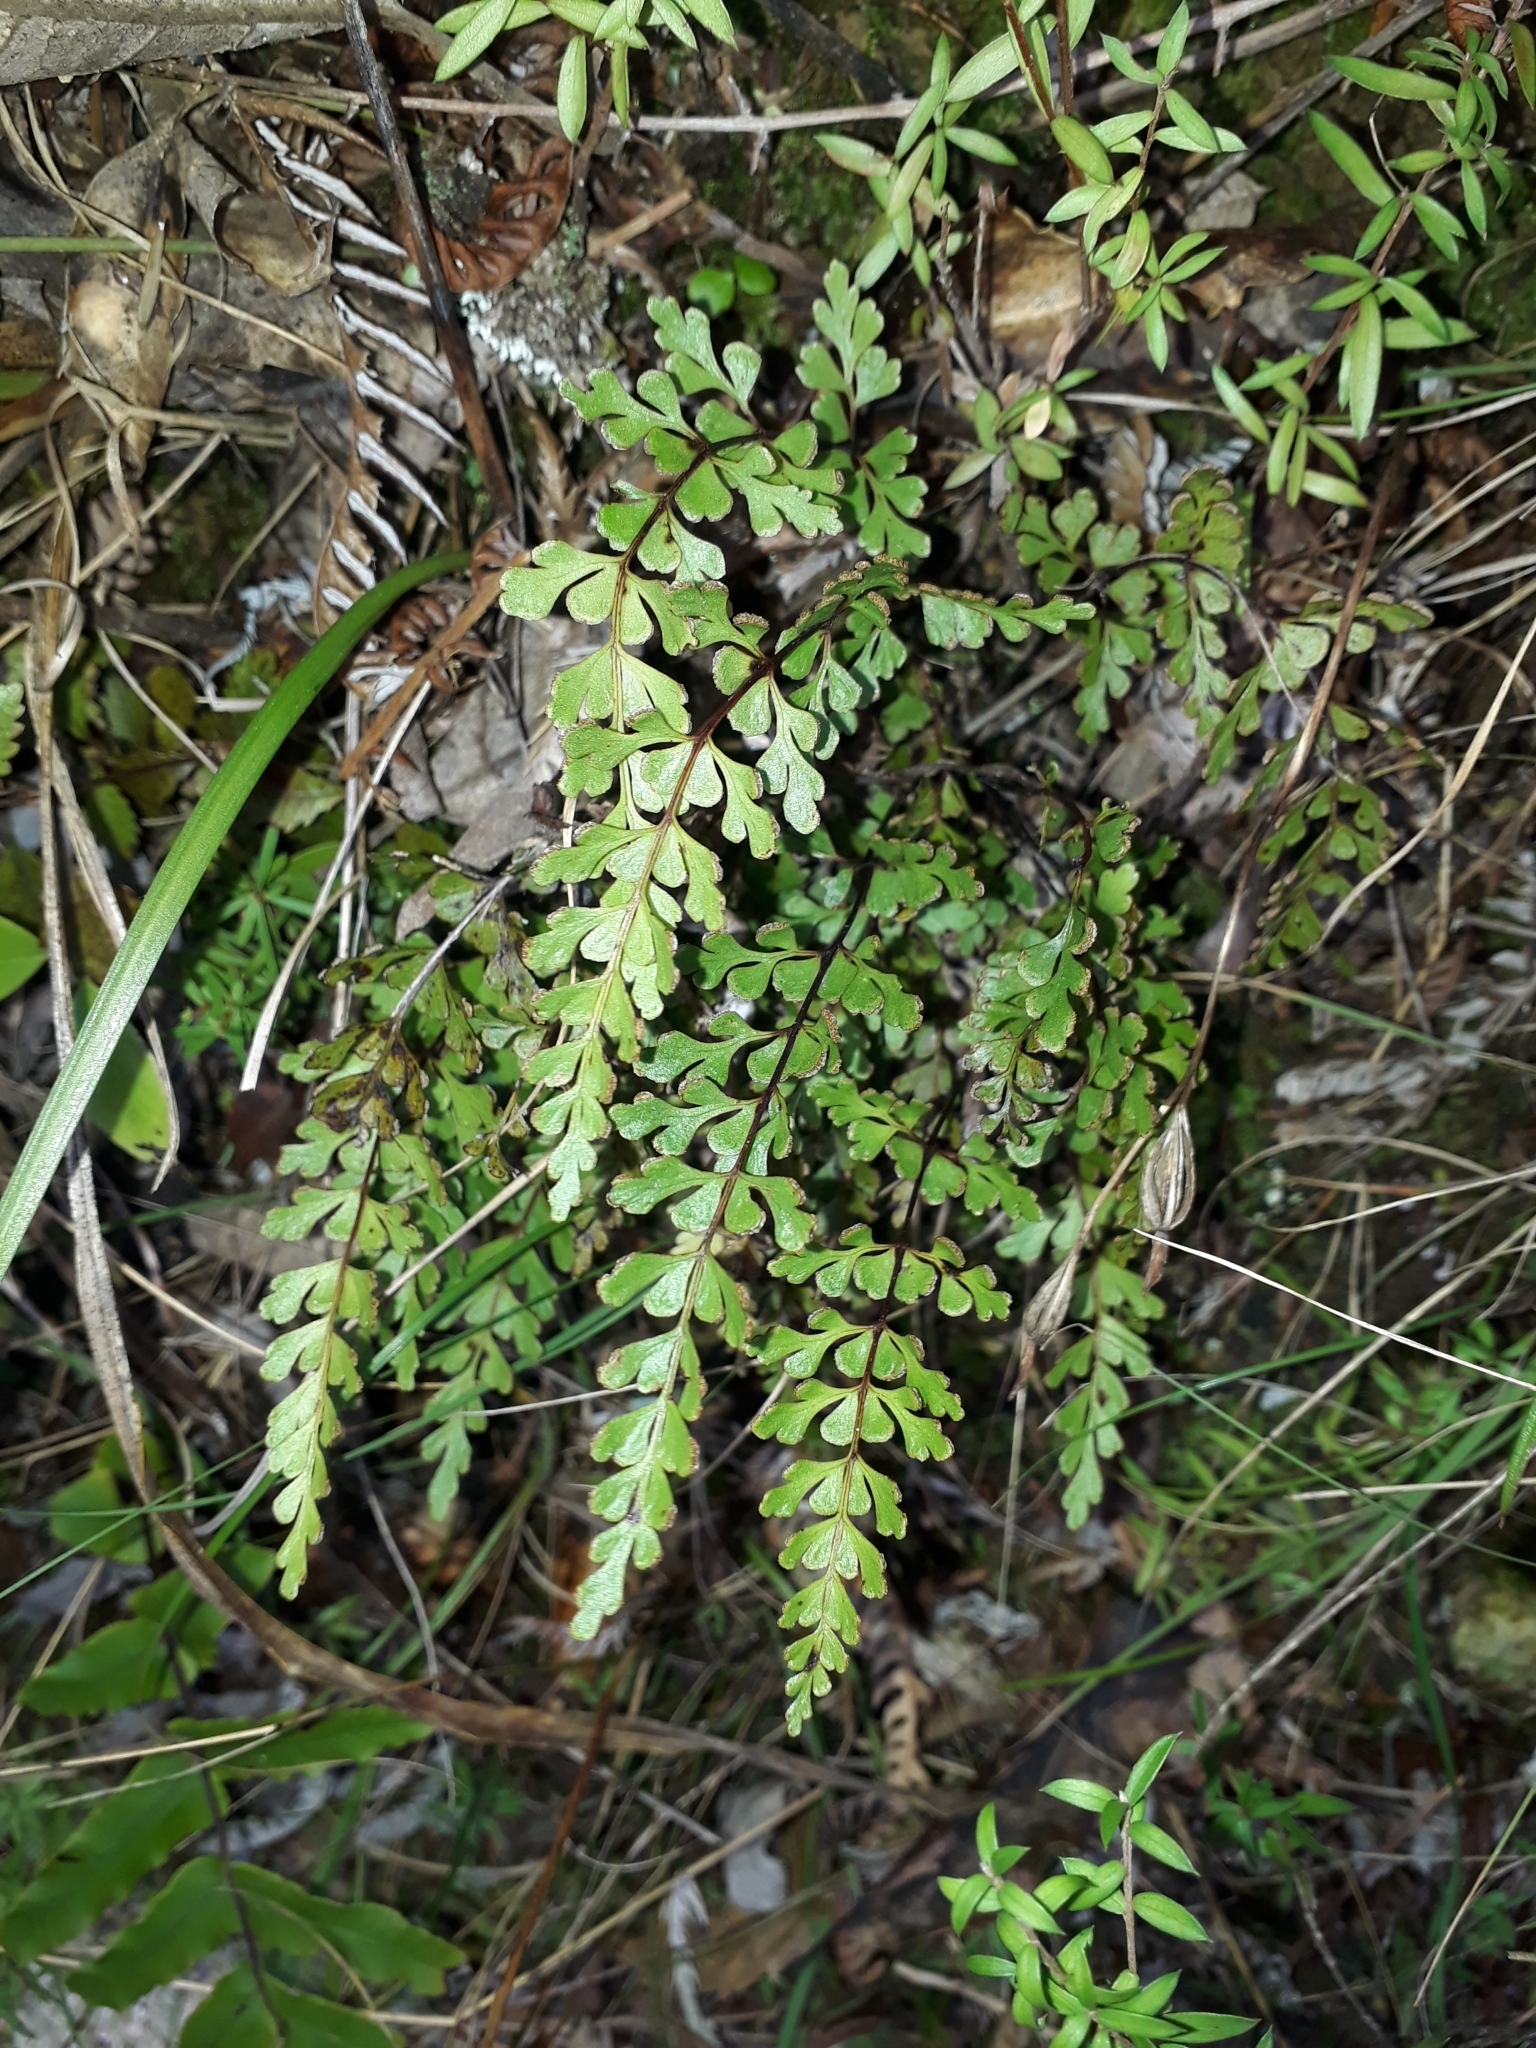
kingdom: Plantae
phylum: Tracheophyta
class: Polypodiopsida
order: Polypodiales
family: Lindsaeaceae
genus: Lindsaea
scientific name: Lindsaea trichomanoides
